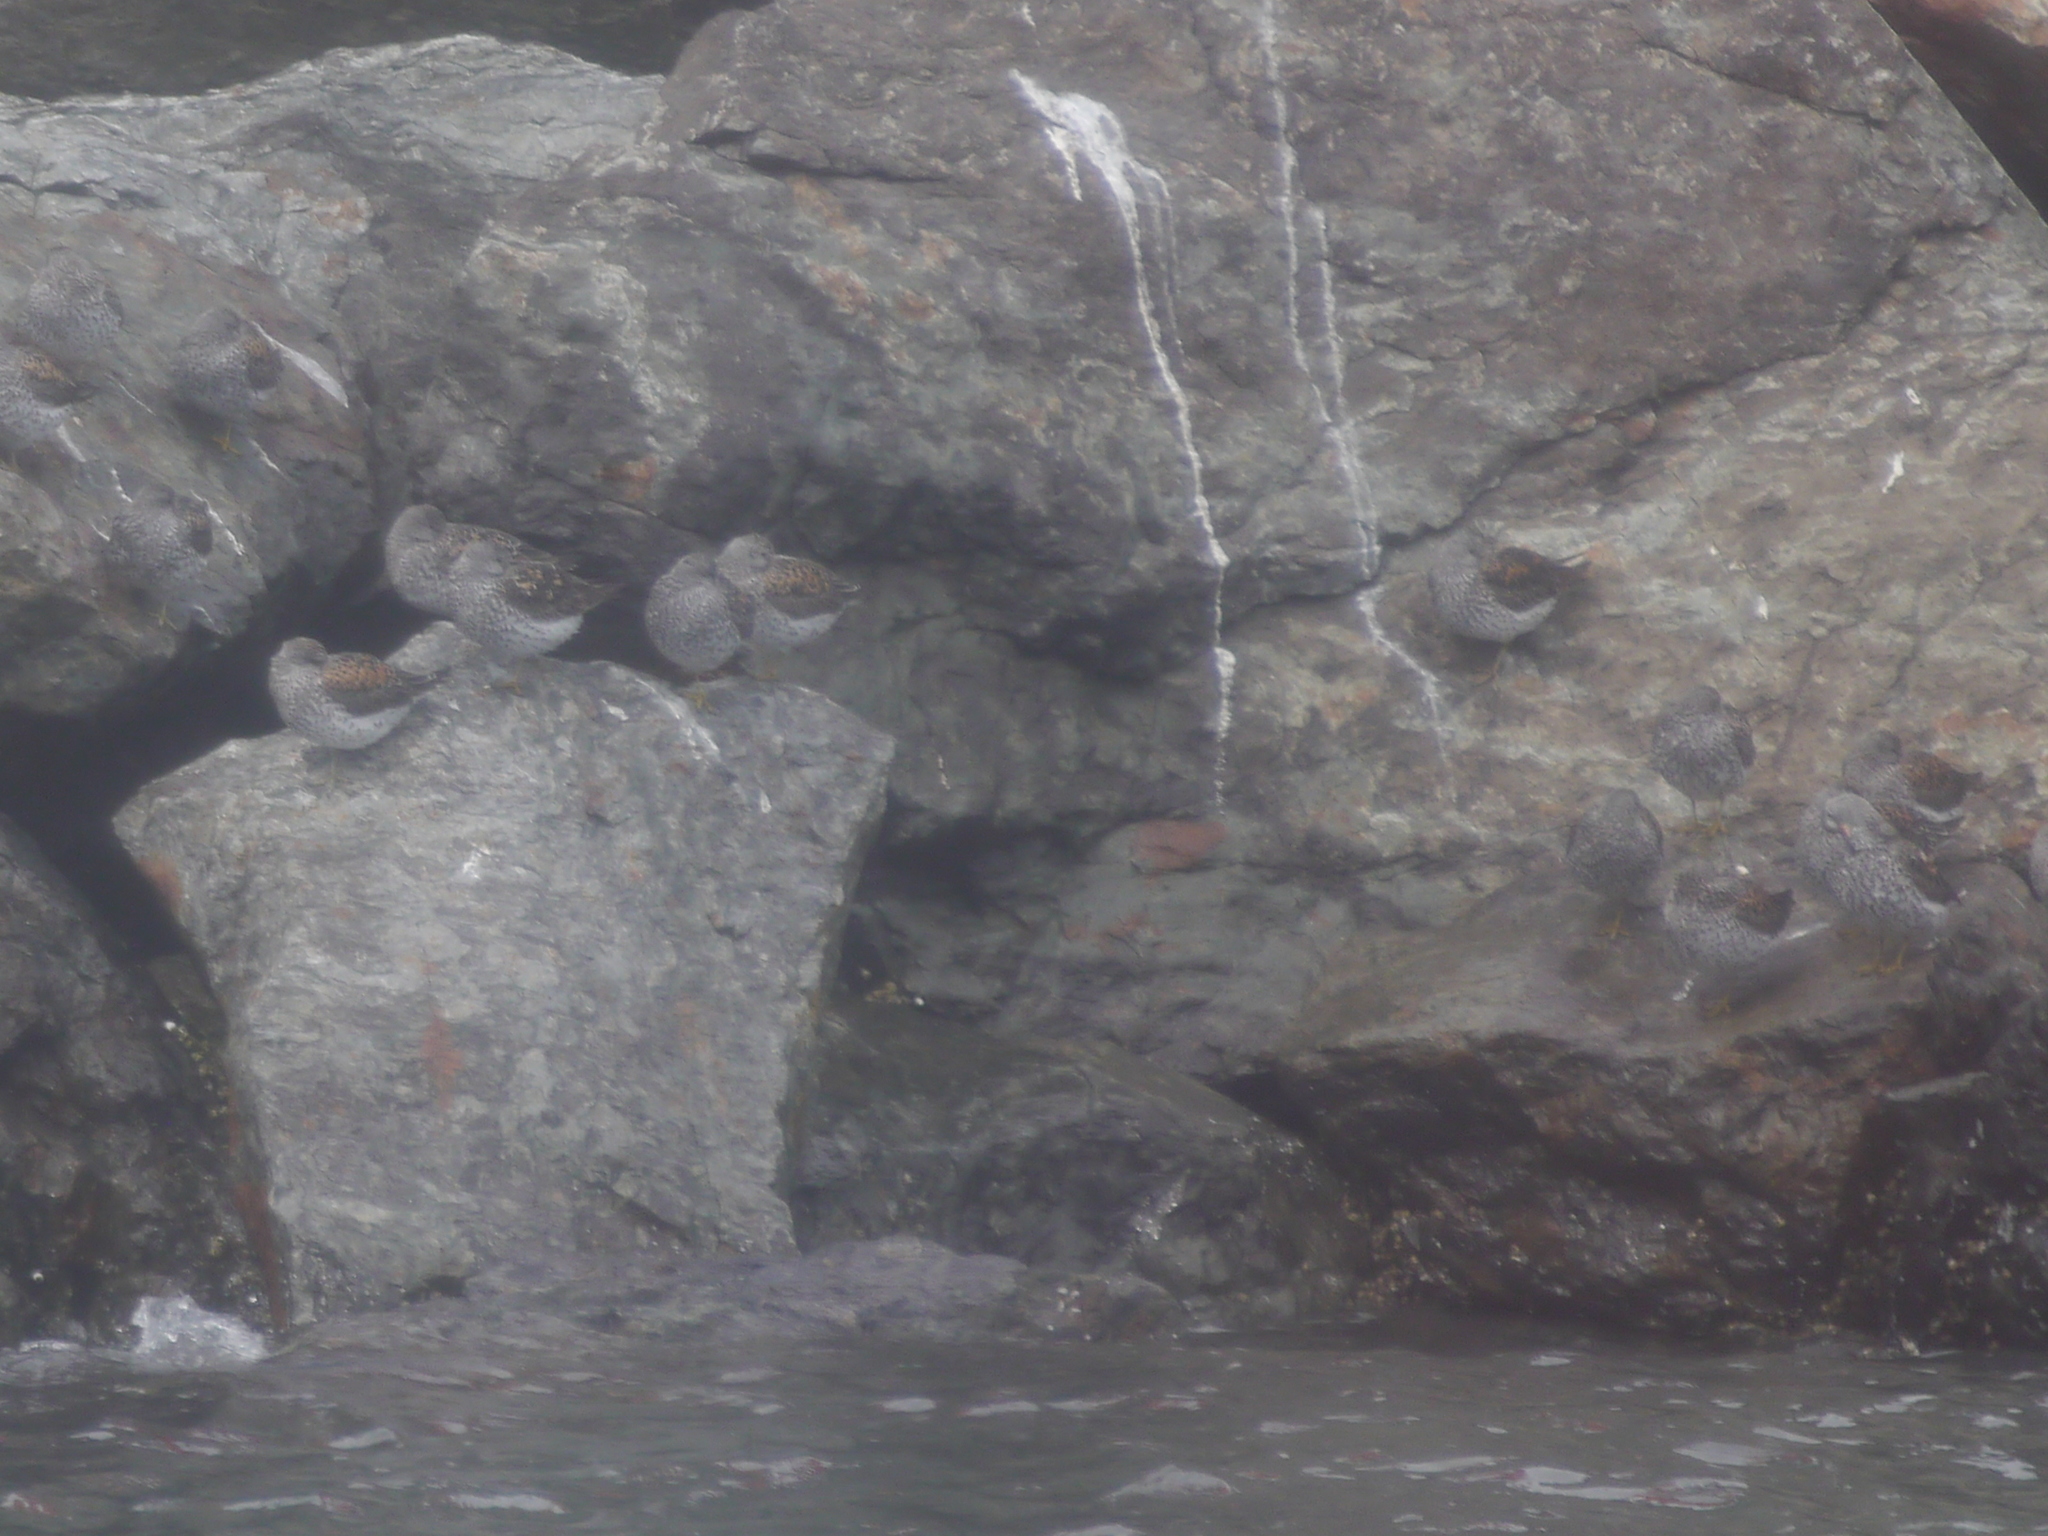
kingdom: Animalia
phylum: Chordata
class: Aves
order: Charadriiformes
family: Scolopacidae
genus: Calidris
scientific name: Calidris virgata
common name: Surfbird
